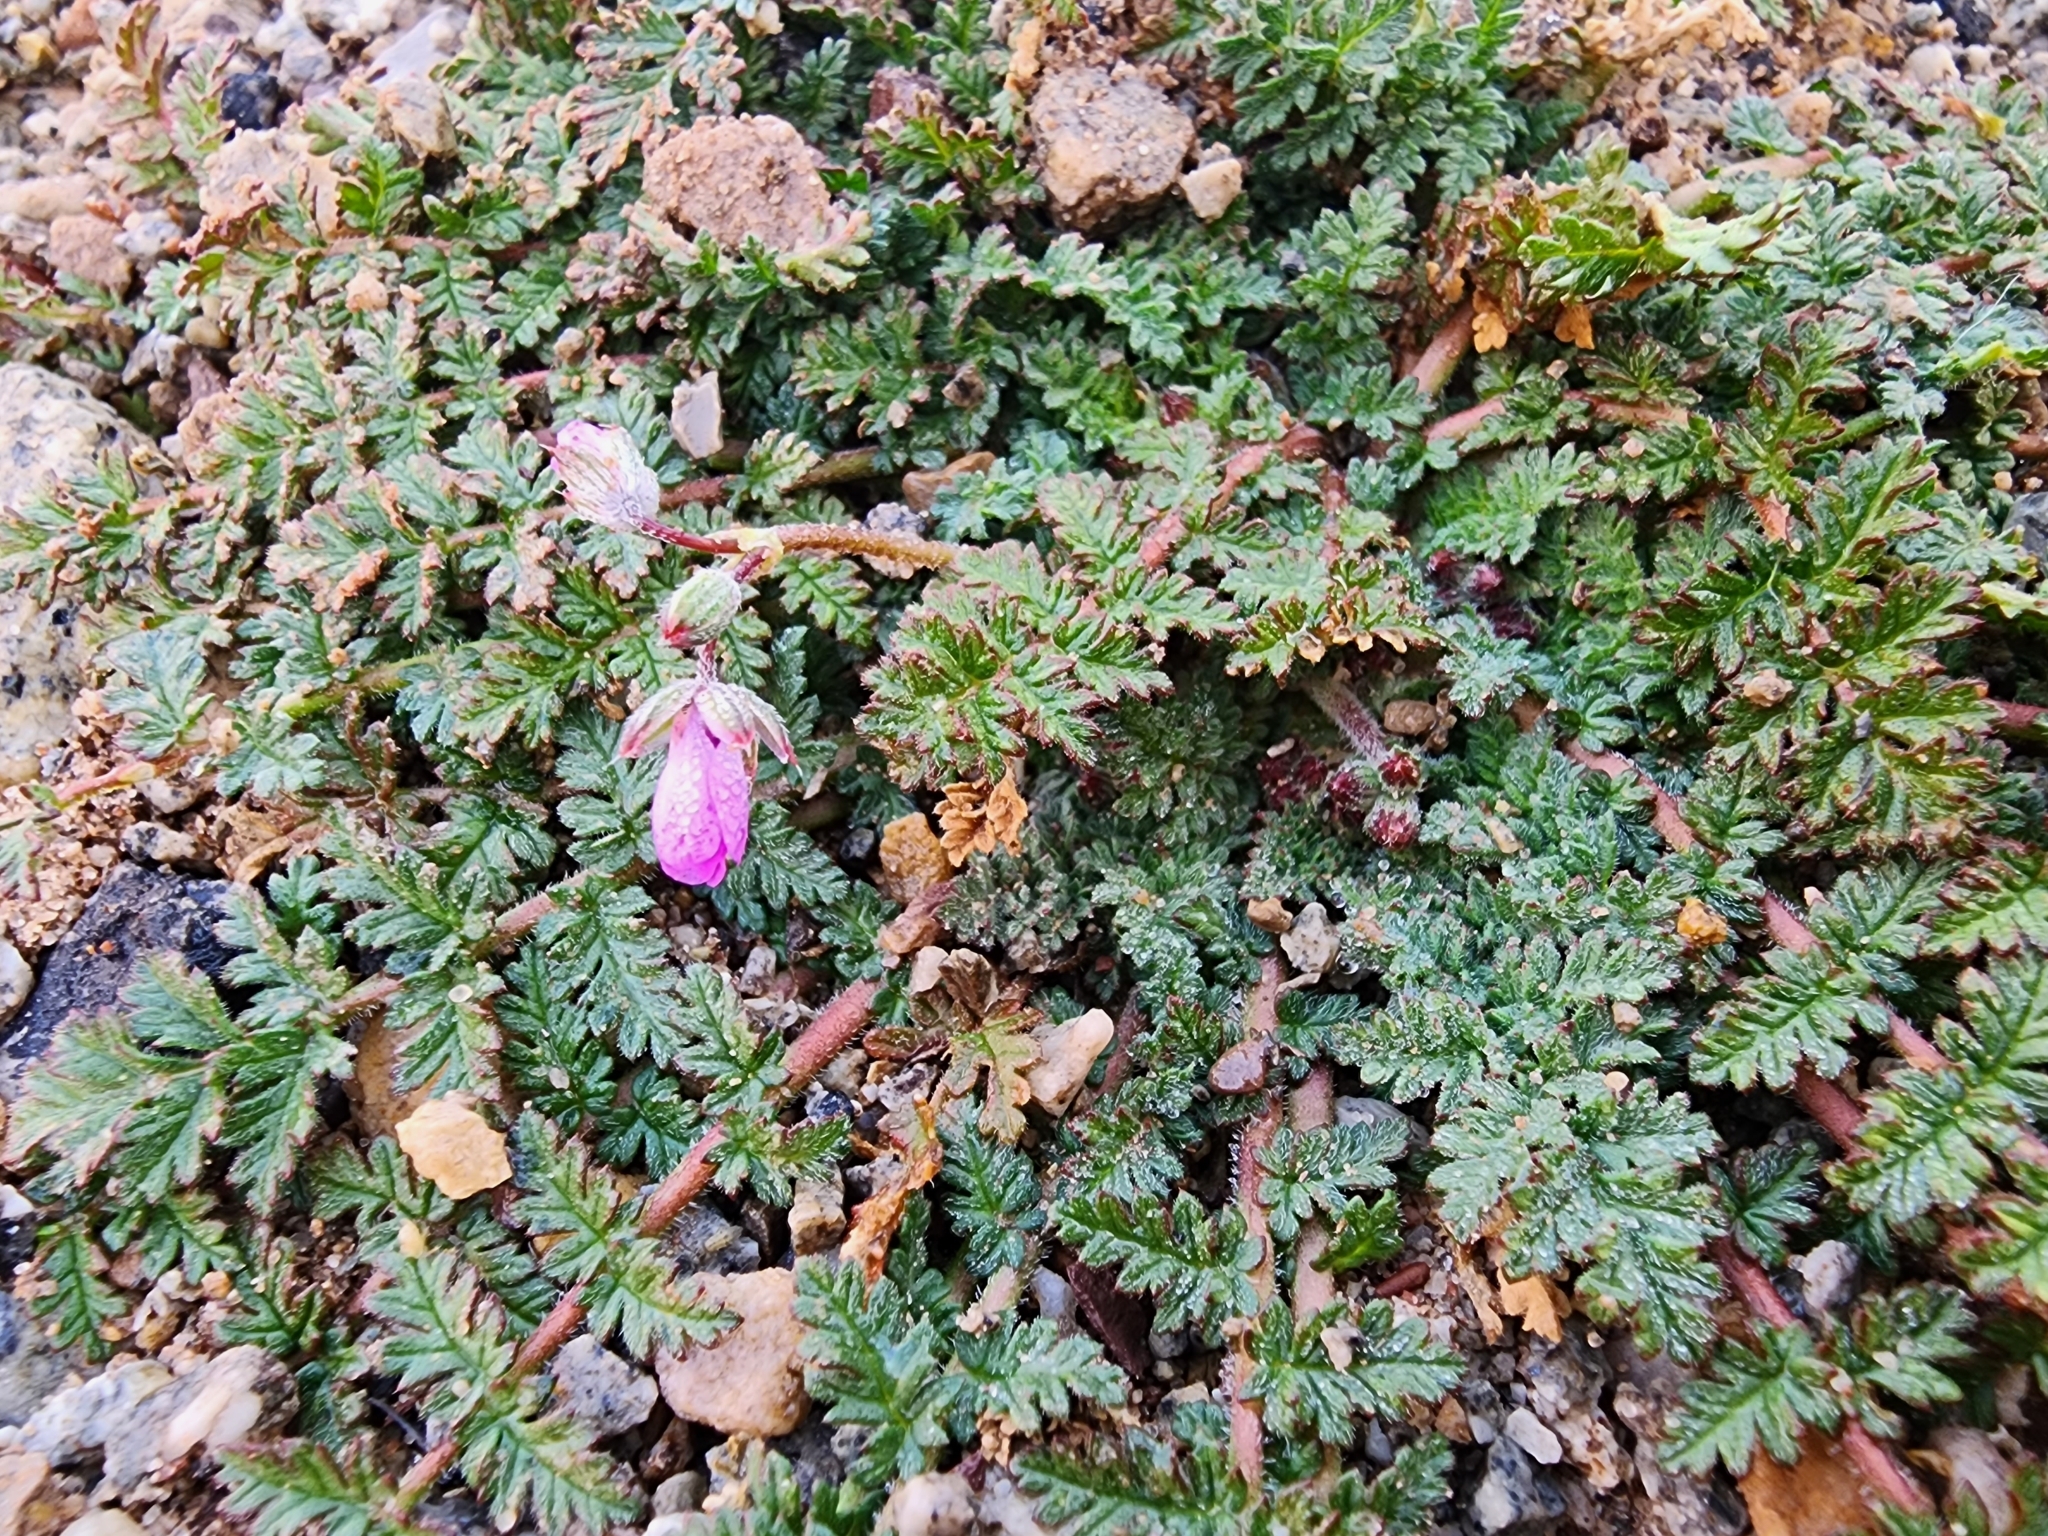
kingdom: Plantae
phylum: Tracheophyta
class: Magnoliopsida
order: Geraniales
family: Geraniaceae
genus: Erodium
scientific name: Erodium cicutarium
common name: Common stork's-bill
